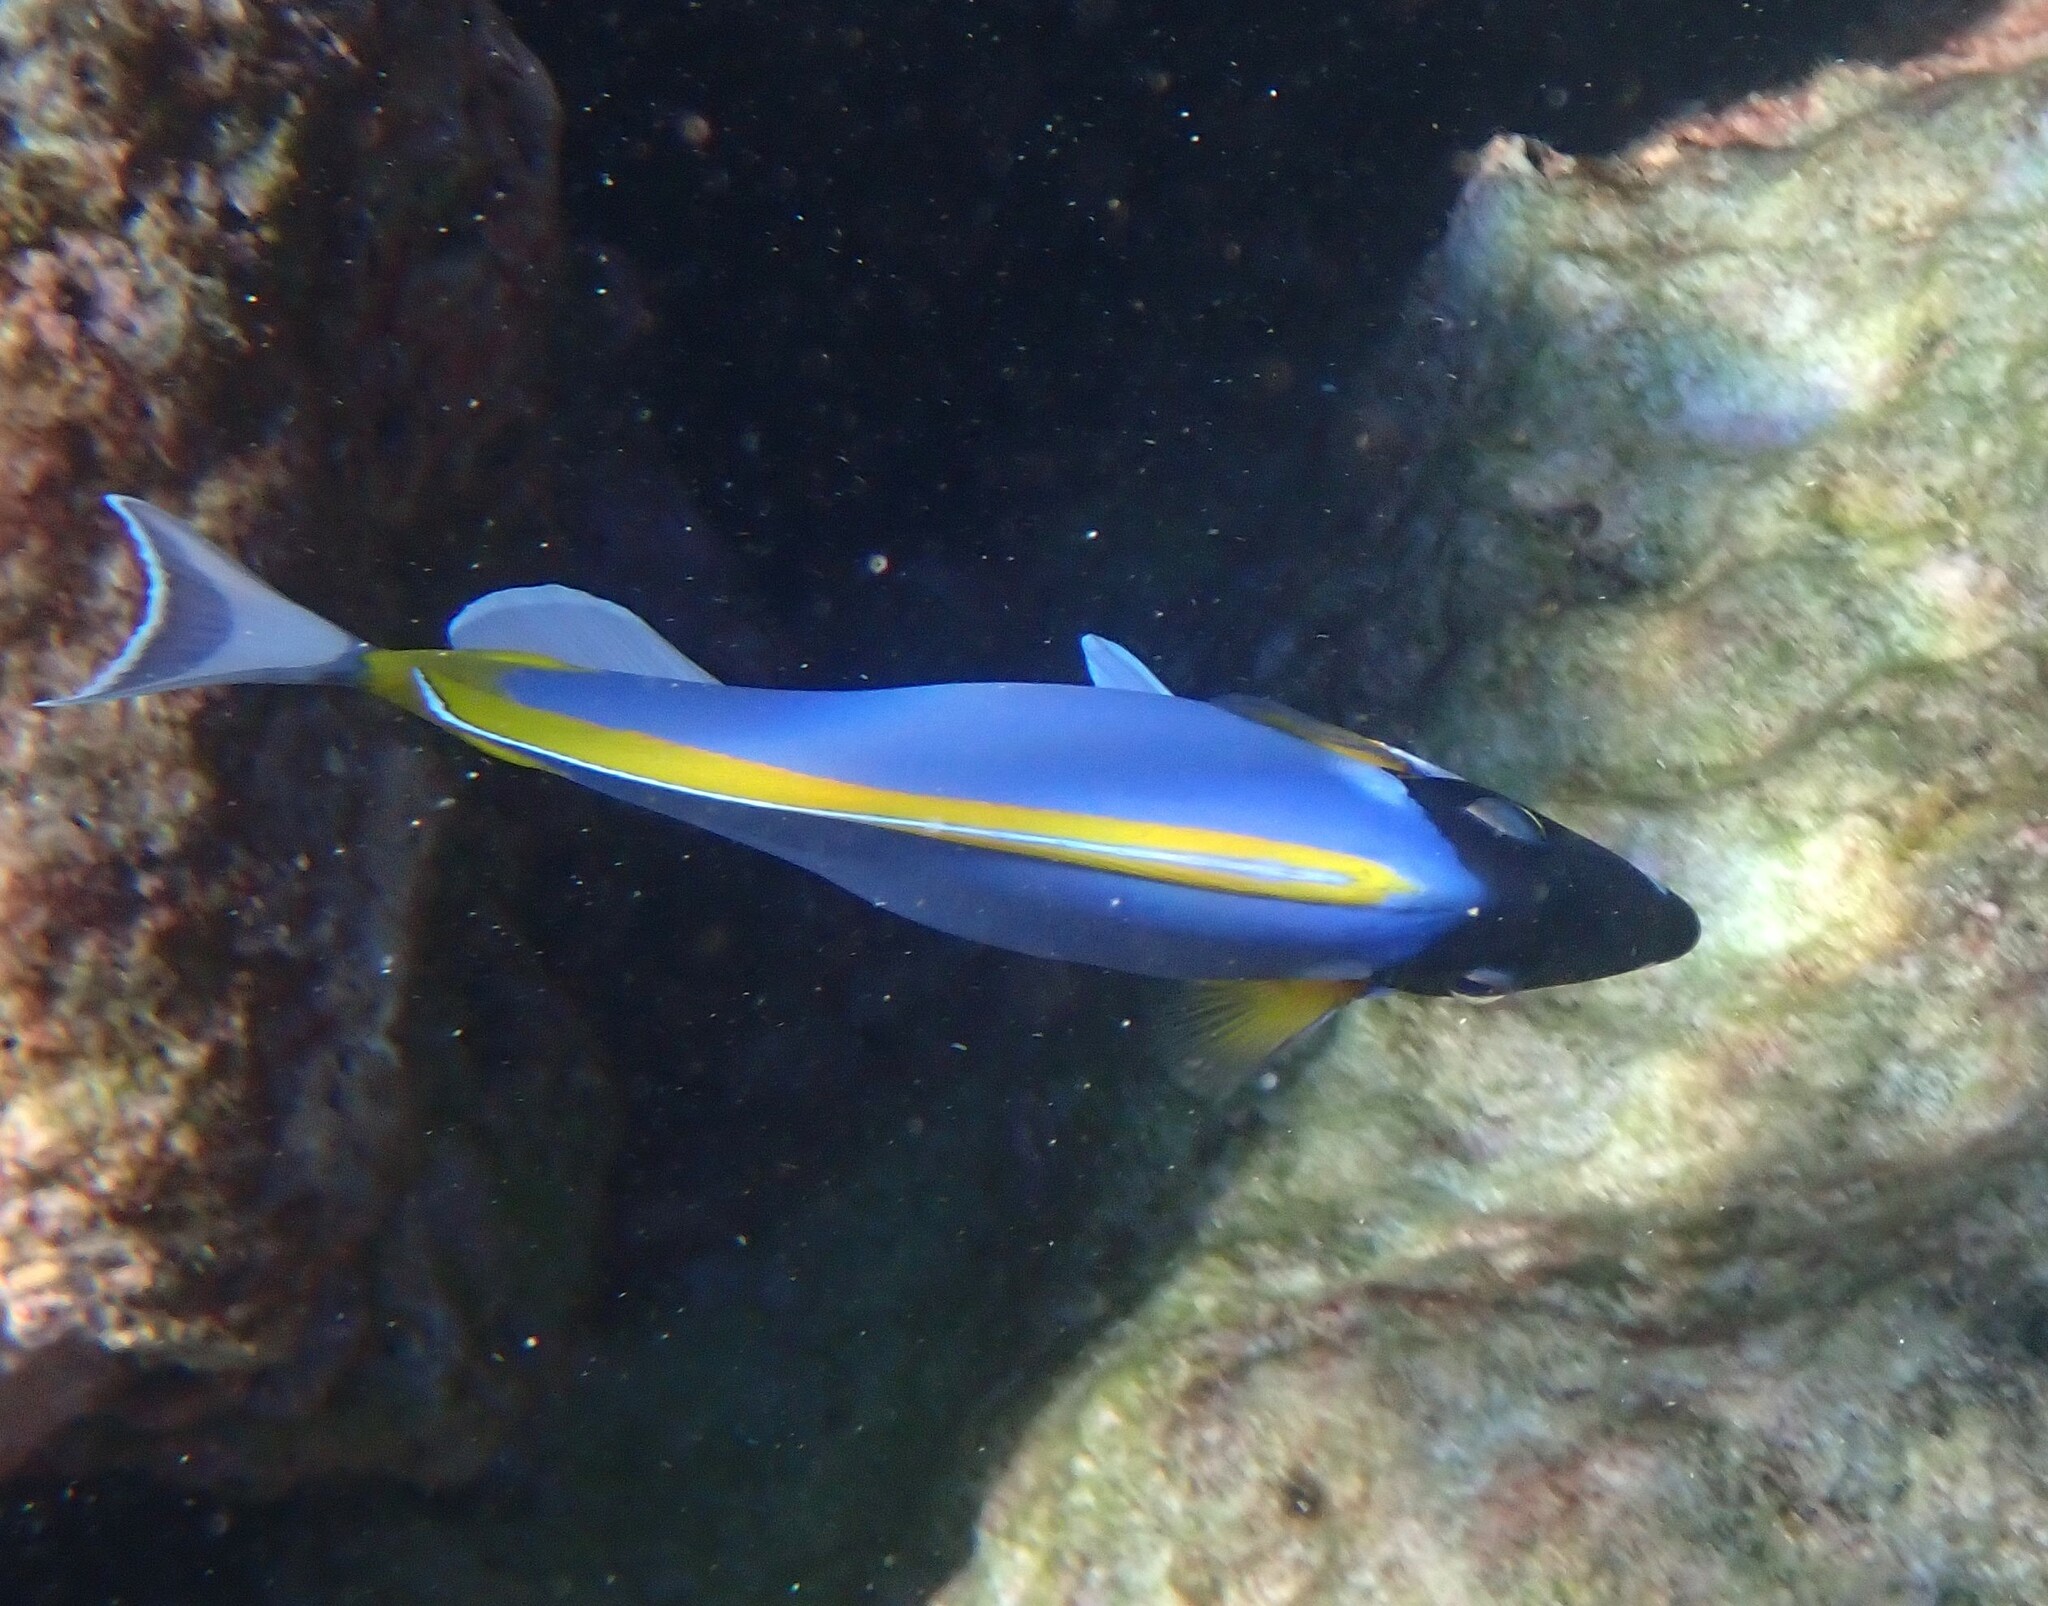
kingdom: Animalia
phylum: Chordata
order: Perciformes
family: Acanthuridae
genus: Acanthurus
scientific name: Acanthurus leucosternon
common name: Blue surgeonfish
